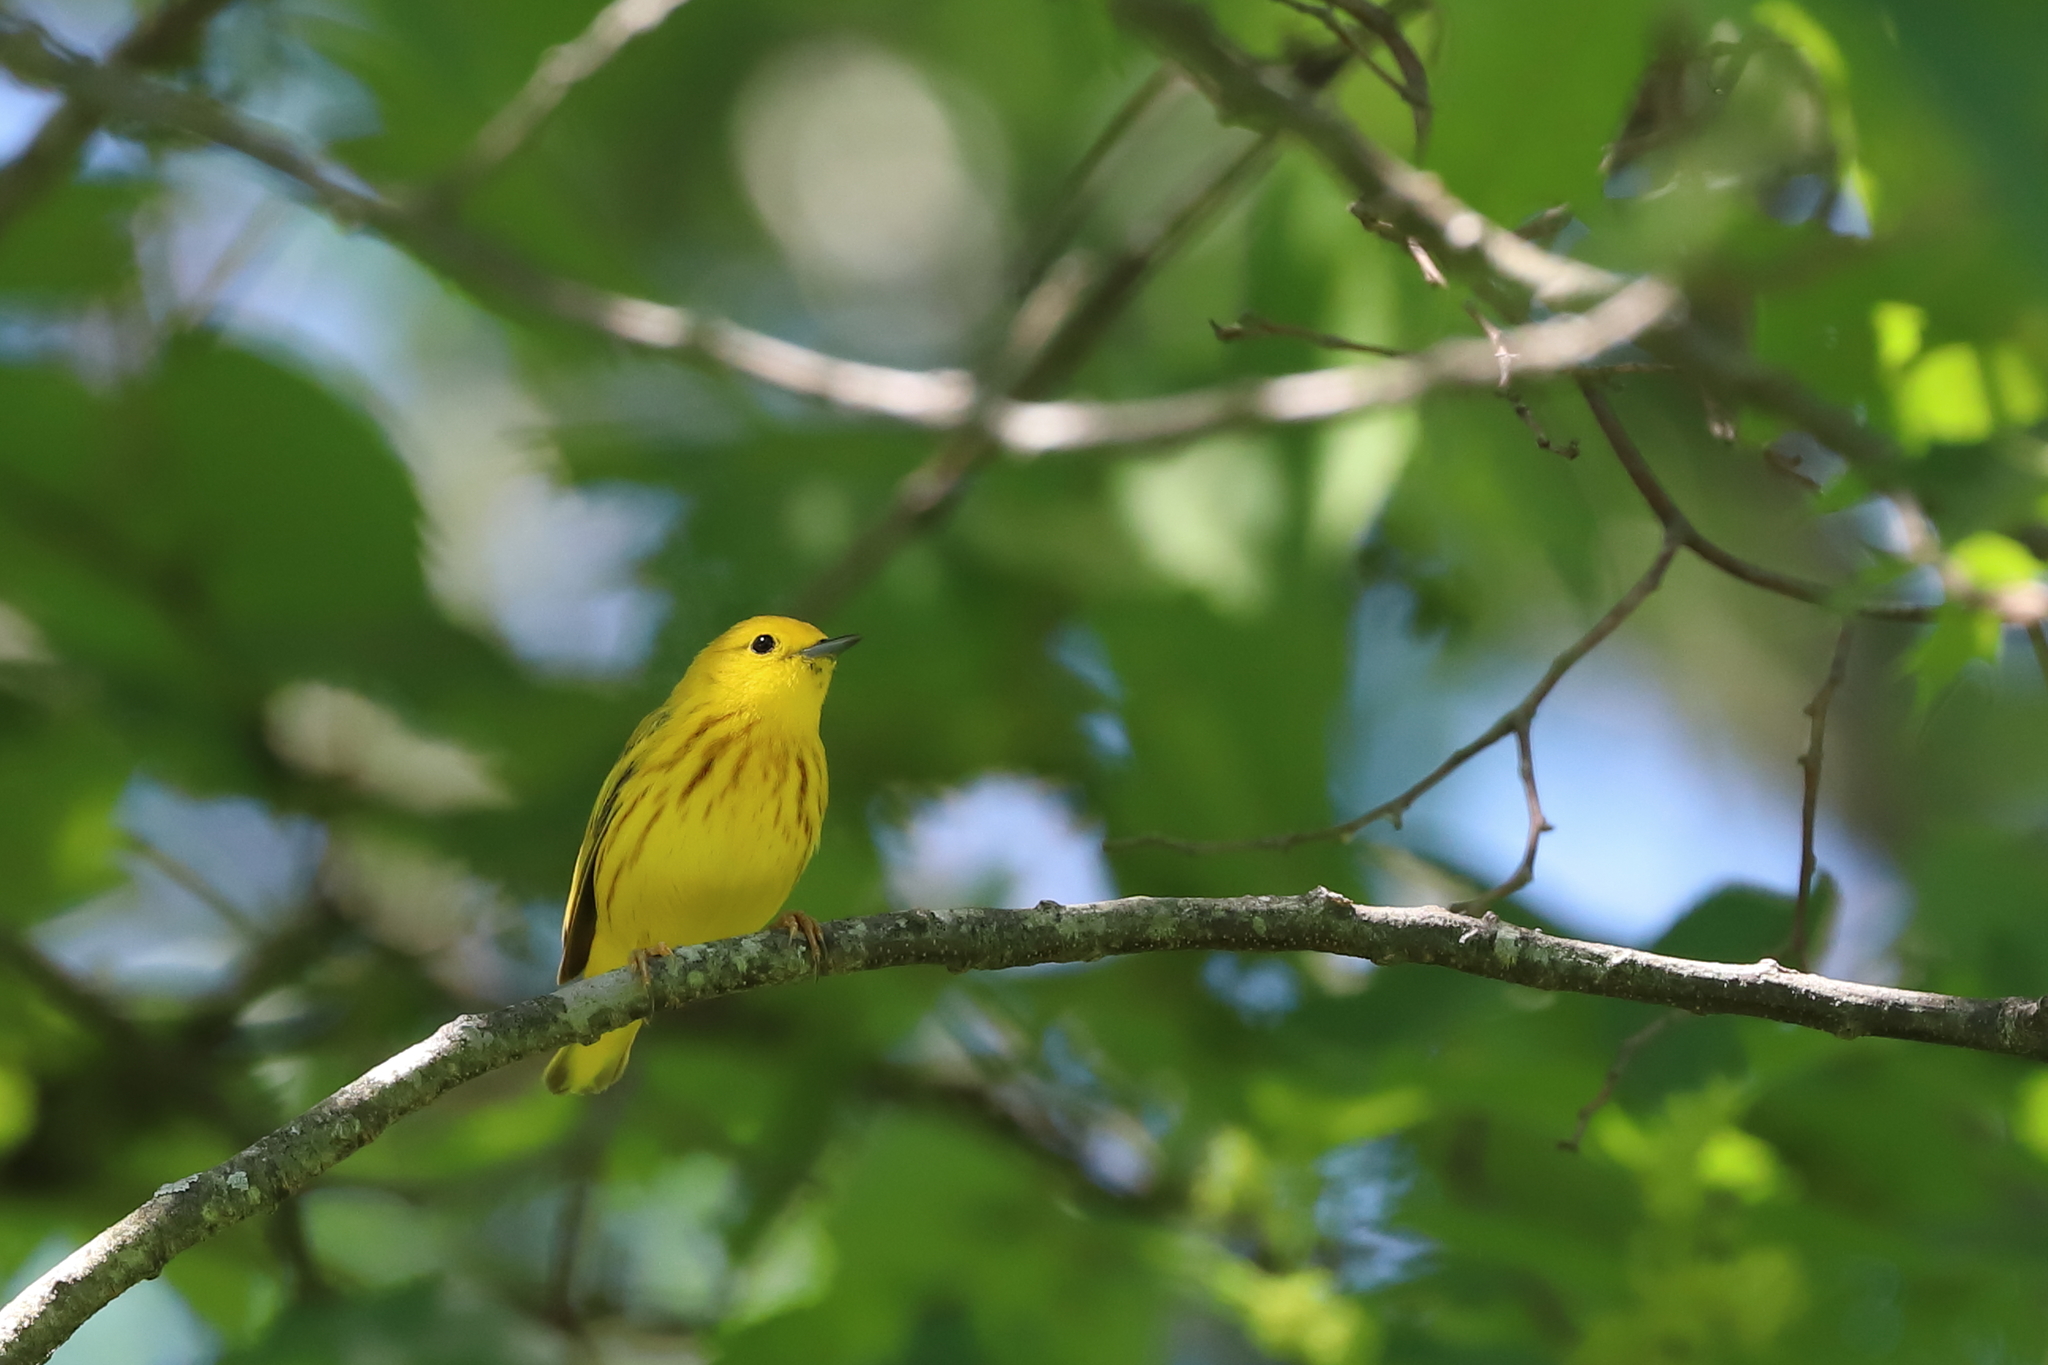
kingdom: Animalia
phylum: Chordata
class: Aves
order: Passeriformes
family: Parulidae
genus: Setophaga
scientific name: Setophaga petechia
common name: Yellow warbler
